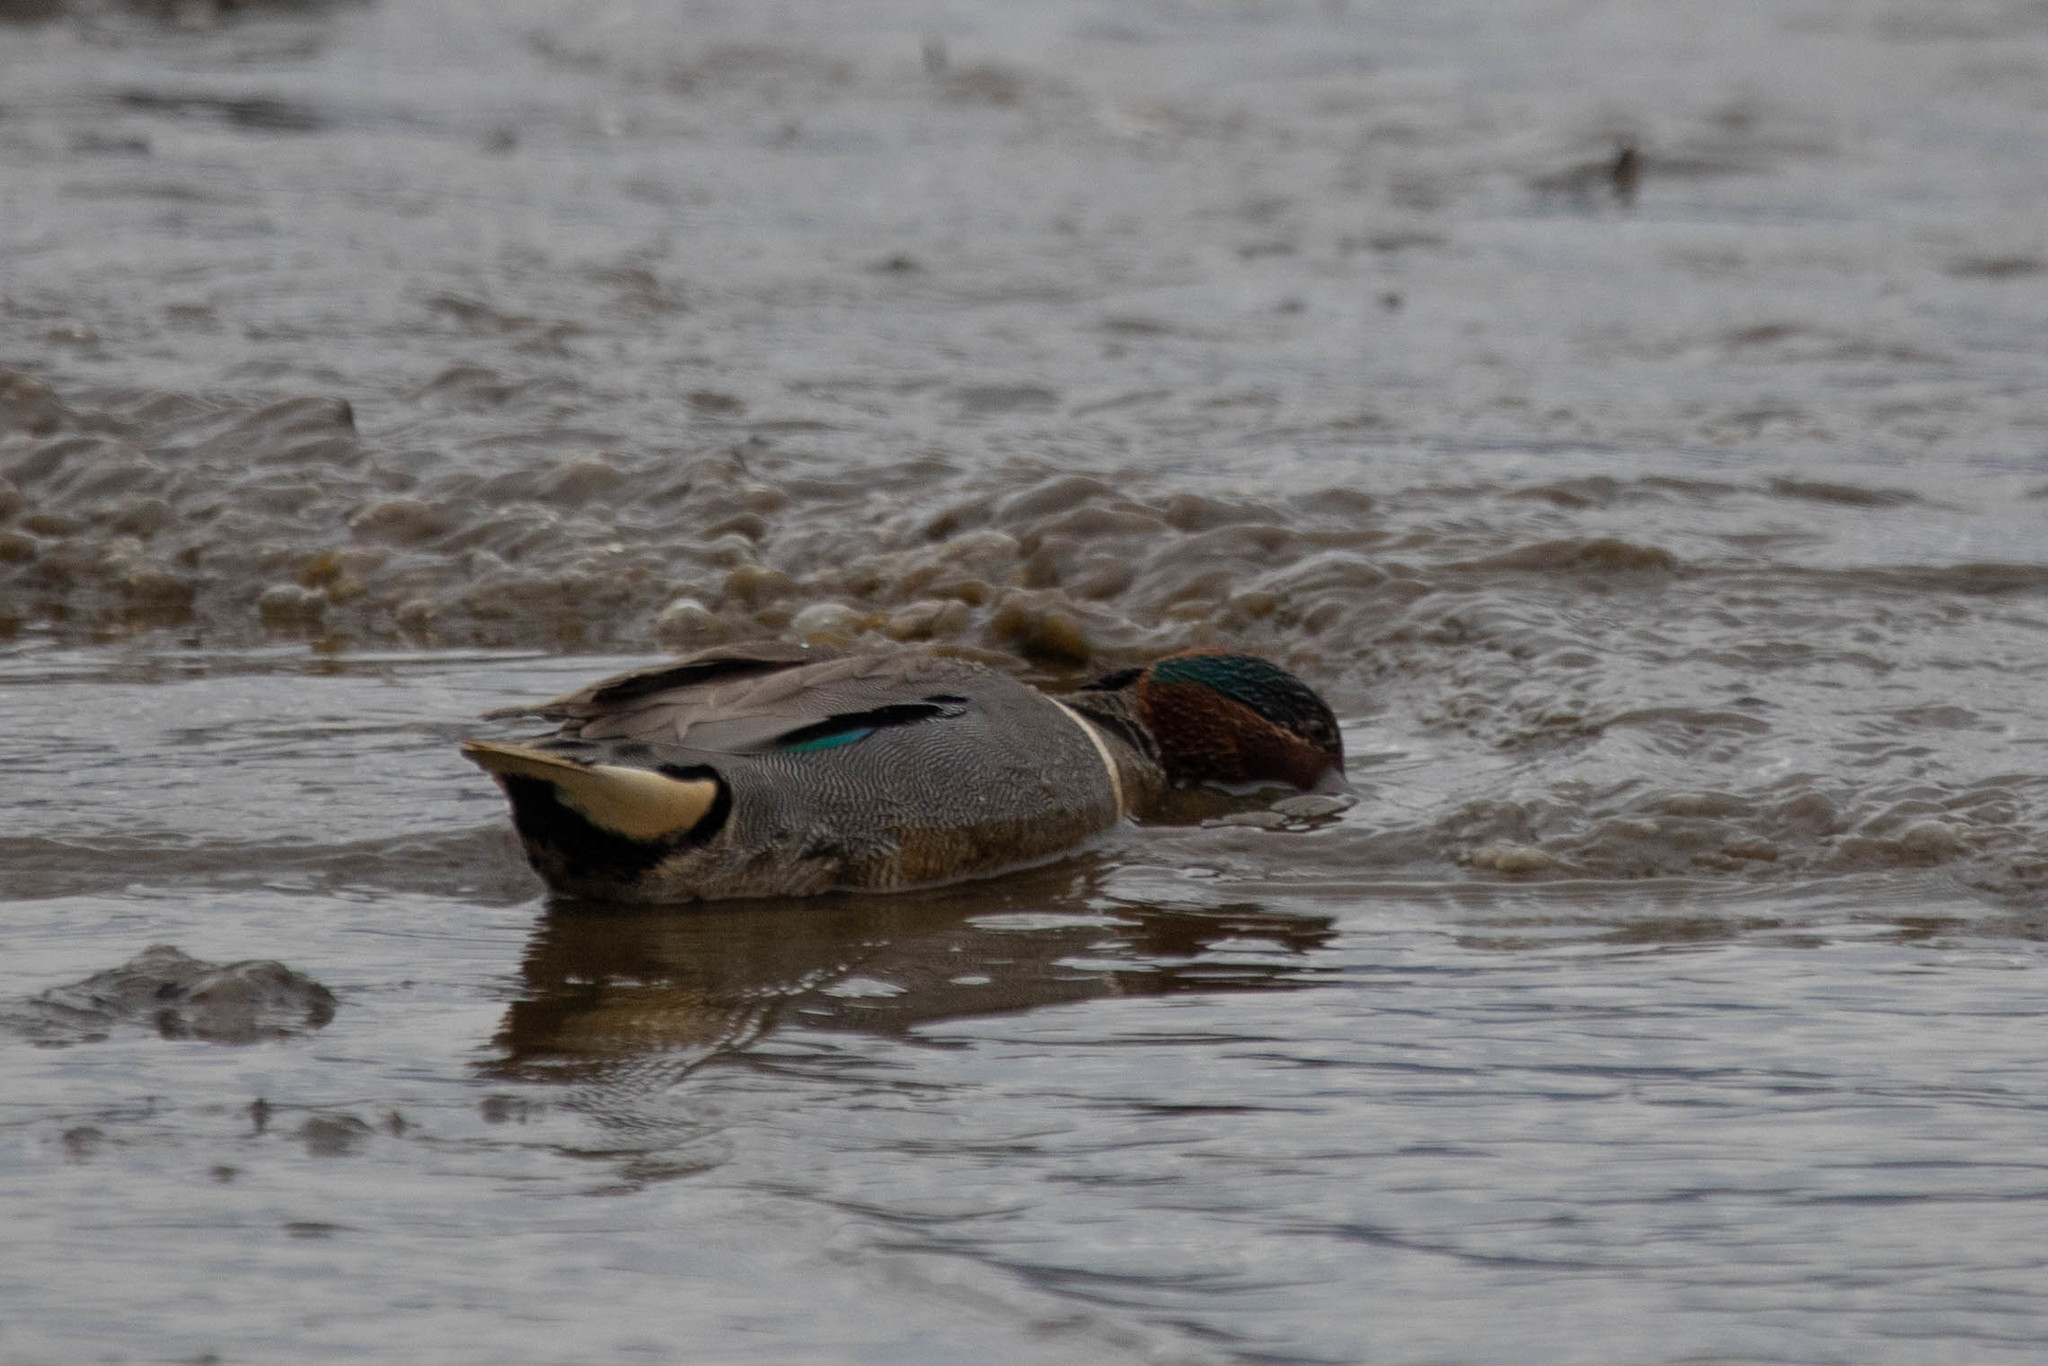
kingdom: Animalia
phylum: Chordata
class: Aves
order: Anseriformes
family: Anatidae
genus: Anas
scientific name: Anas carolinensis
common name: Green-winged teal
